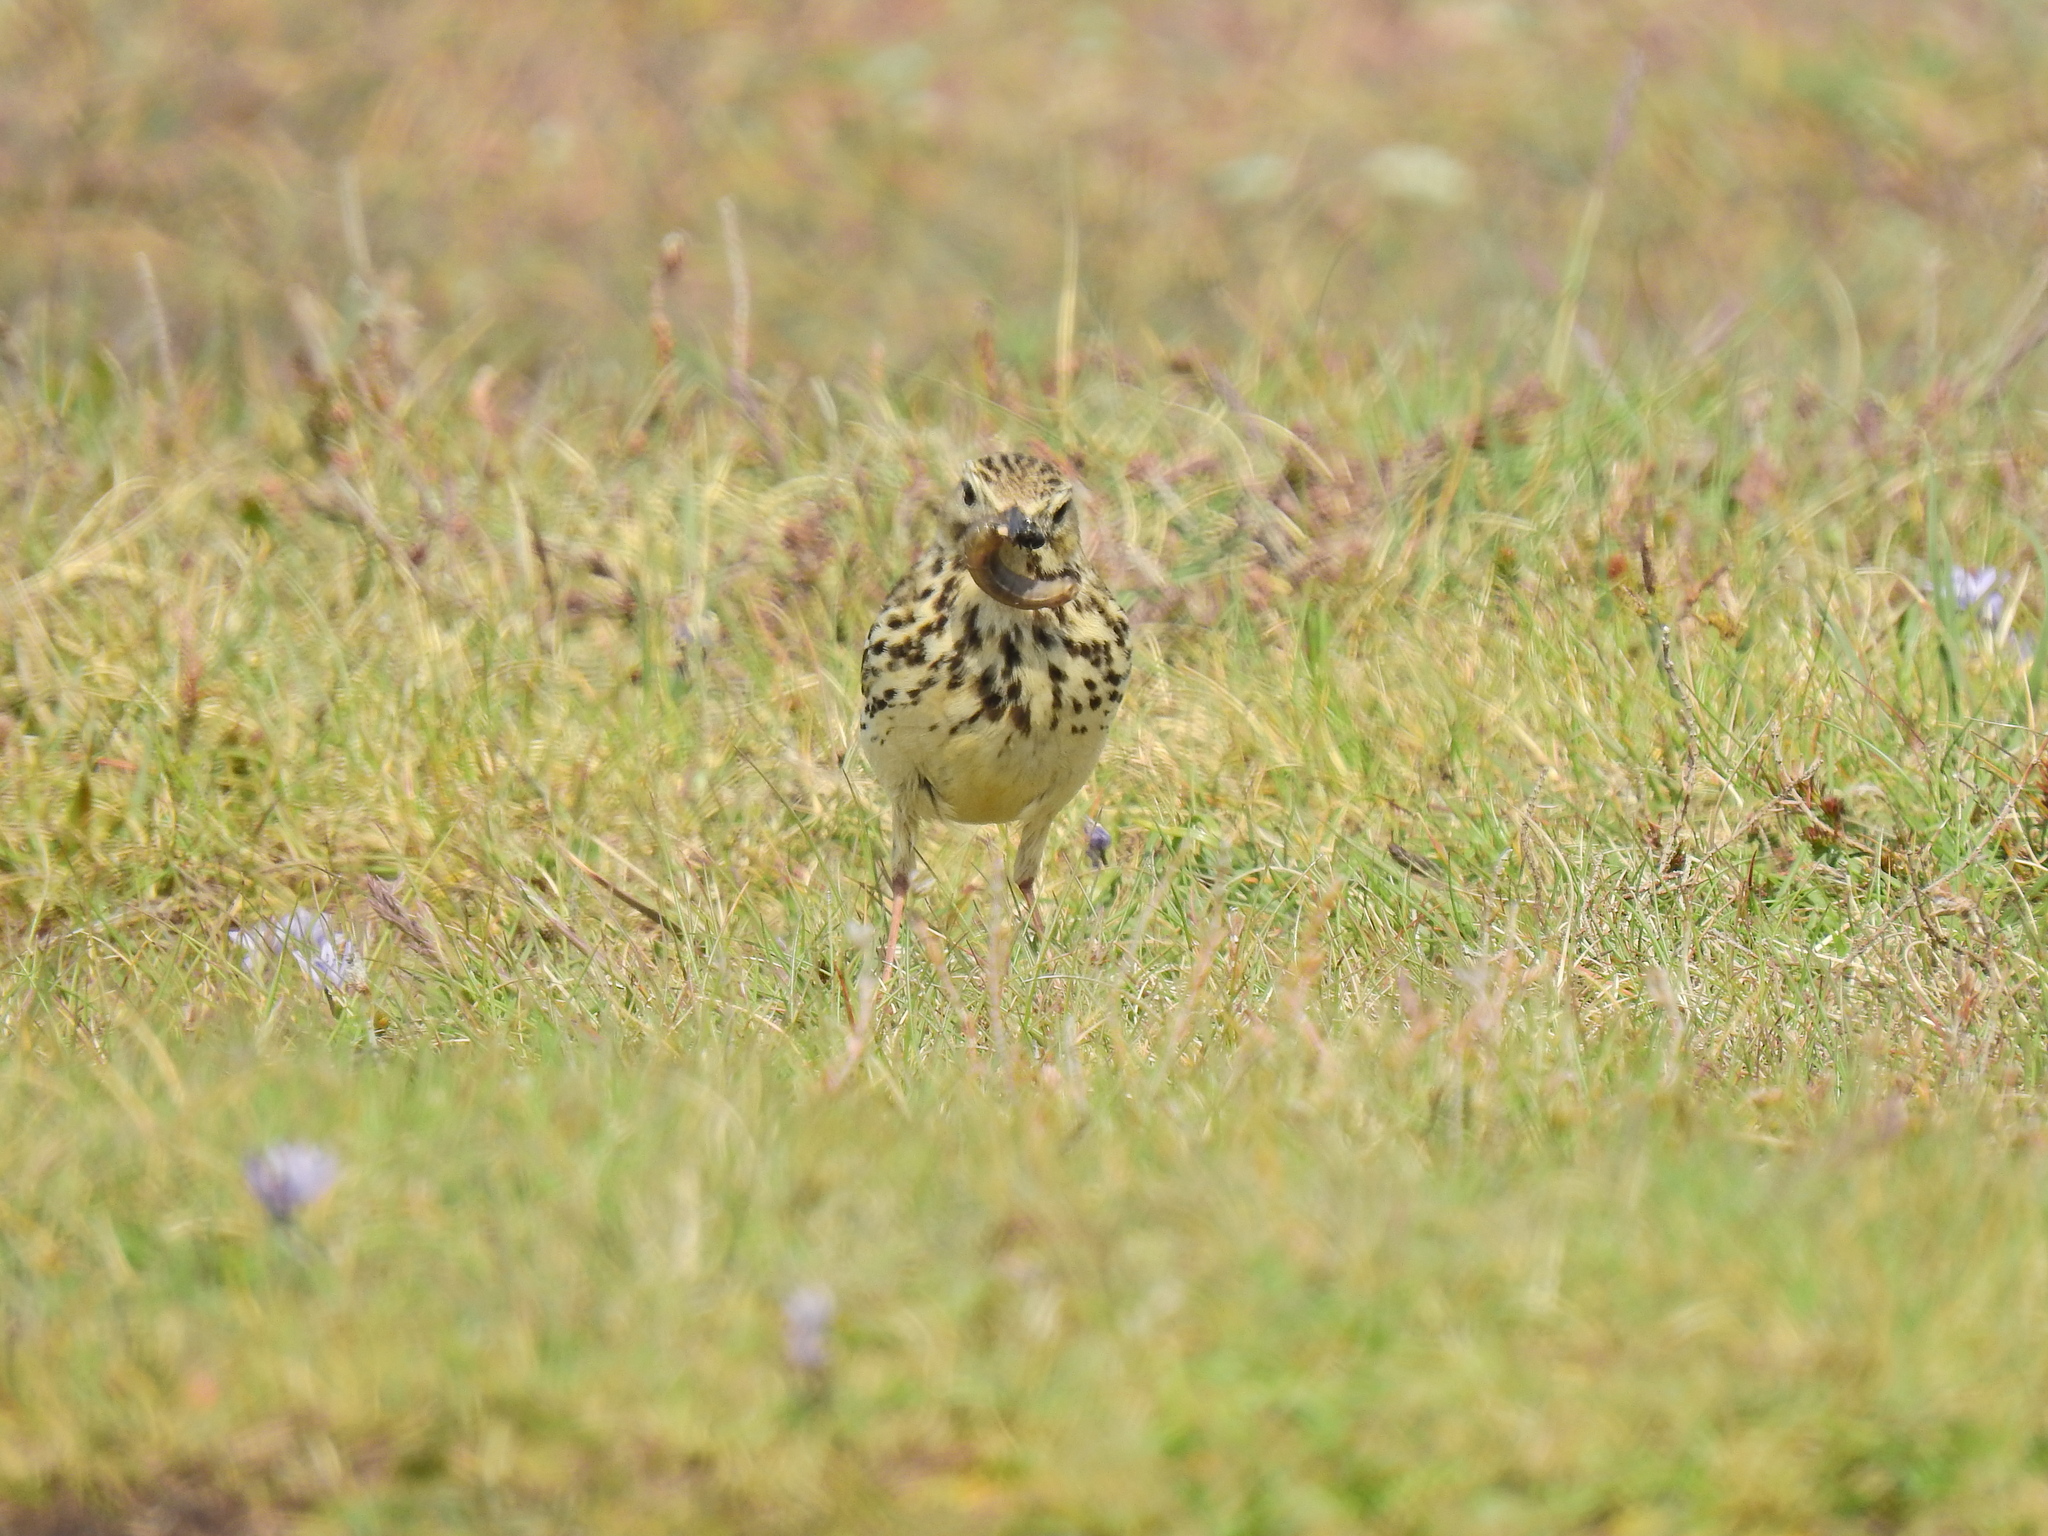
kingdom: Animalia
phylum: Chordata
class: Aves
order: Passeriformes
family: Motacillidae
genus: Anthus
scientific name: Anthus pratensis
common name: Meadow pipit
